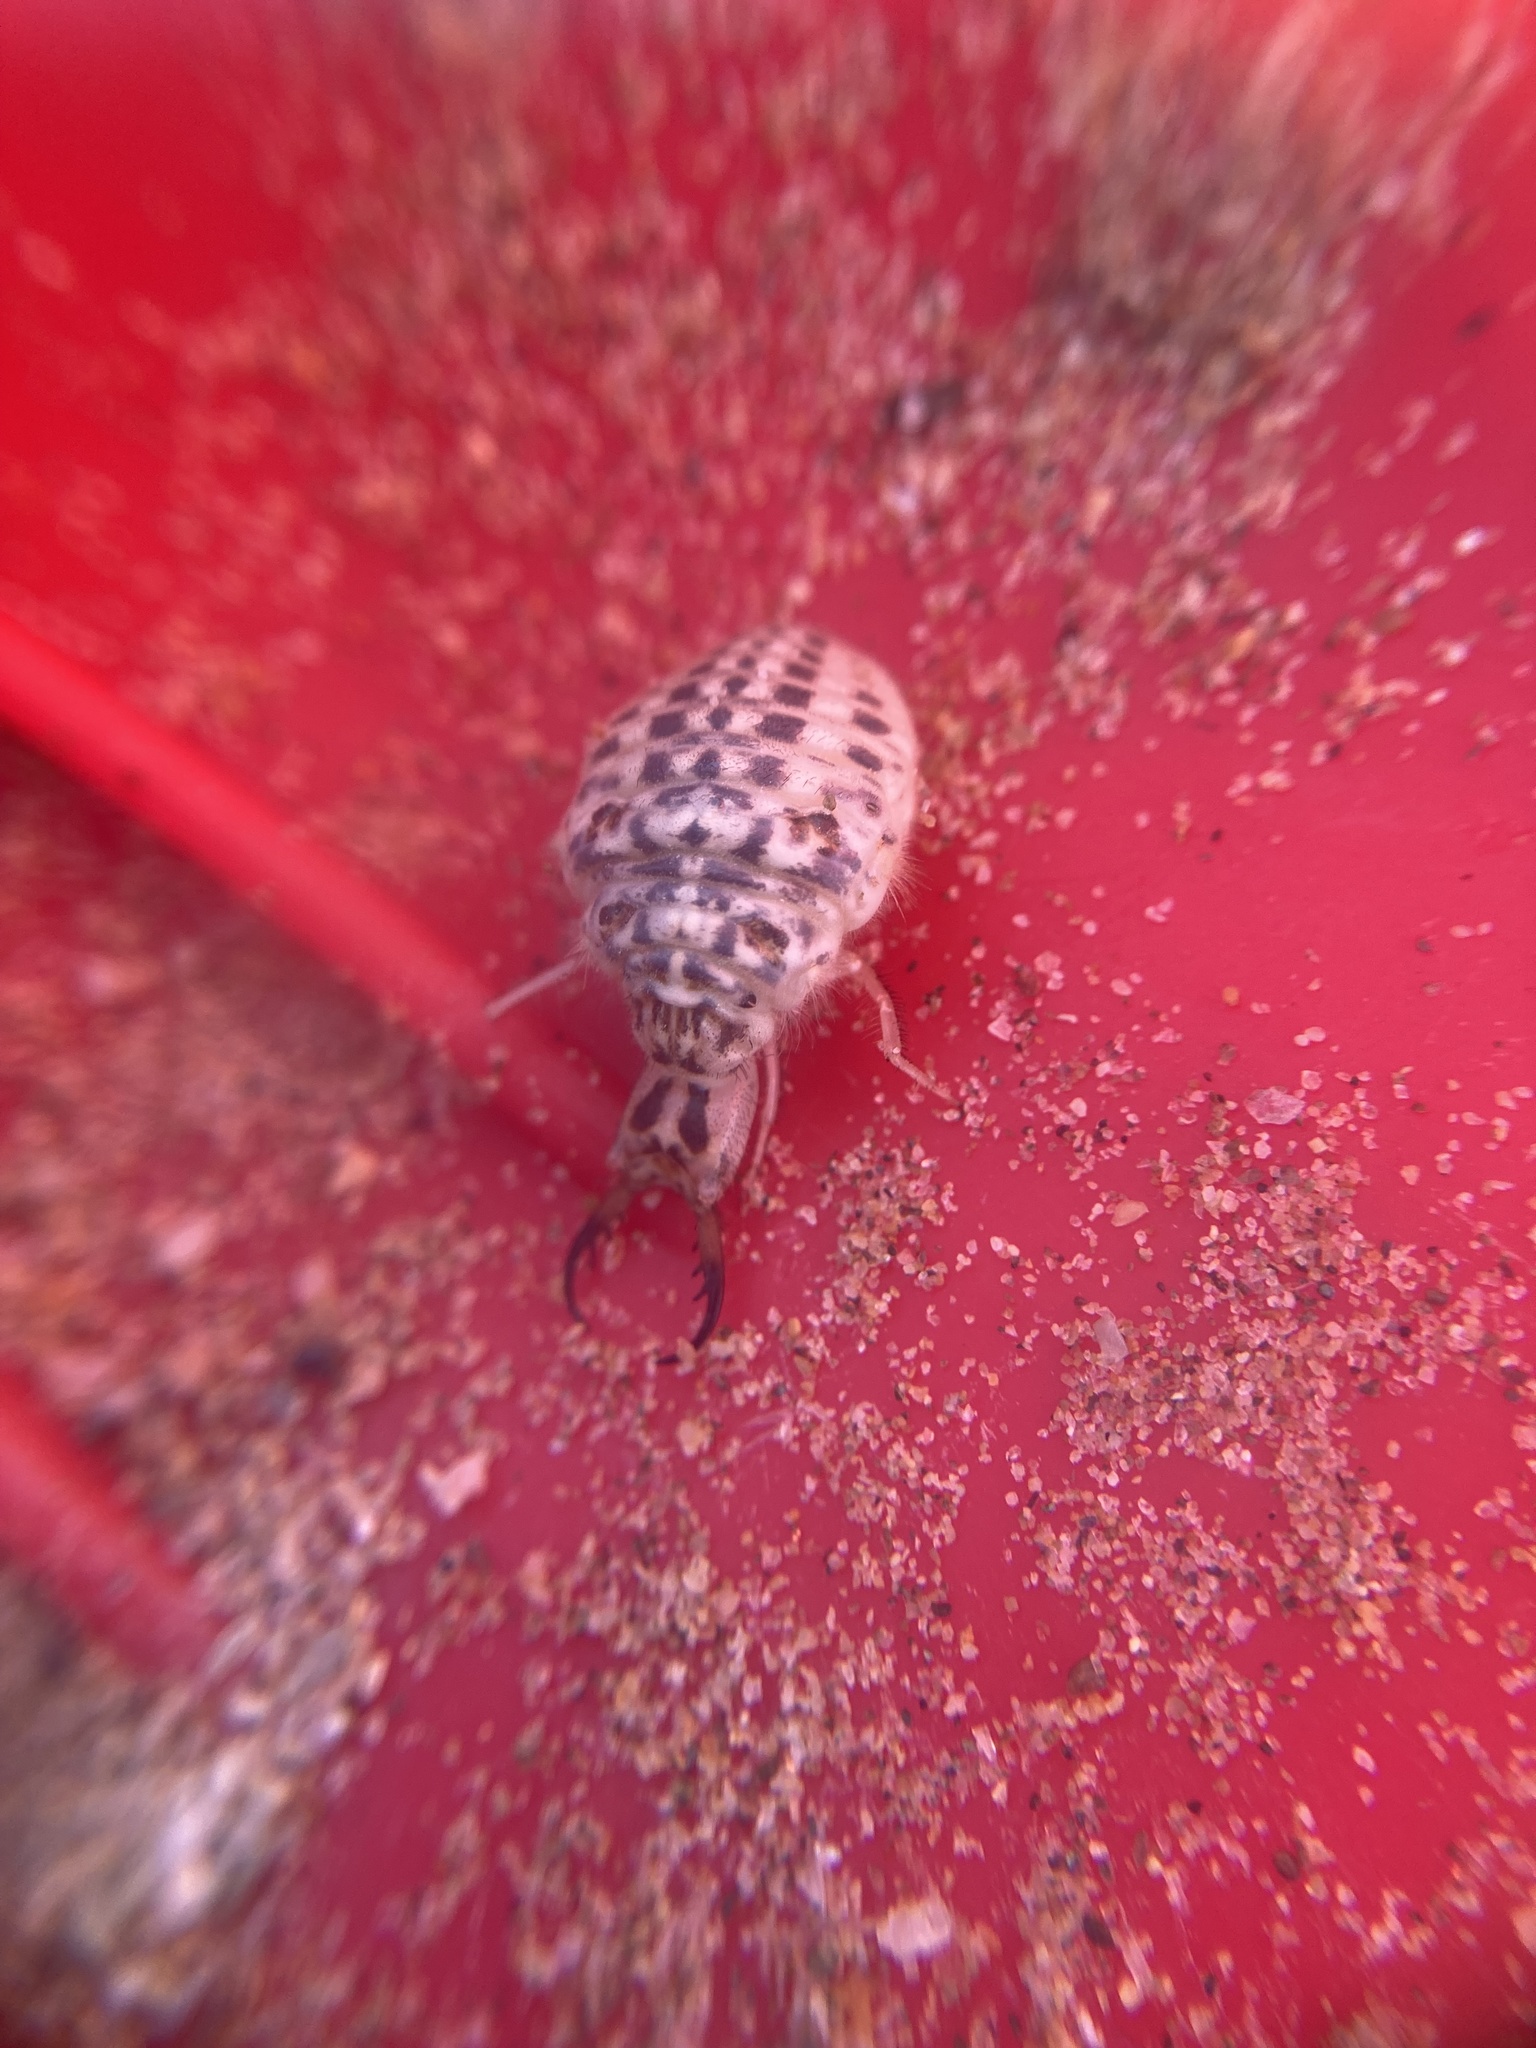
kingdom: Animalia
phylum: Arthropoda
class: Insecta
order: Neuroptera
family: Myrmeleontidae
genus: Synclisis
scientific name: Synclisis baetica
